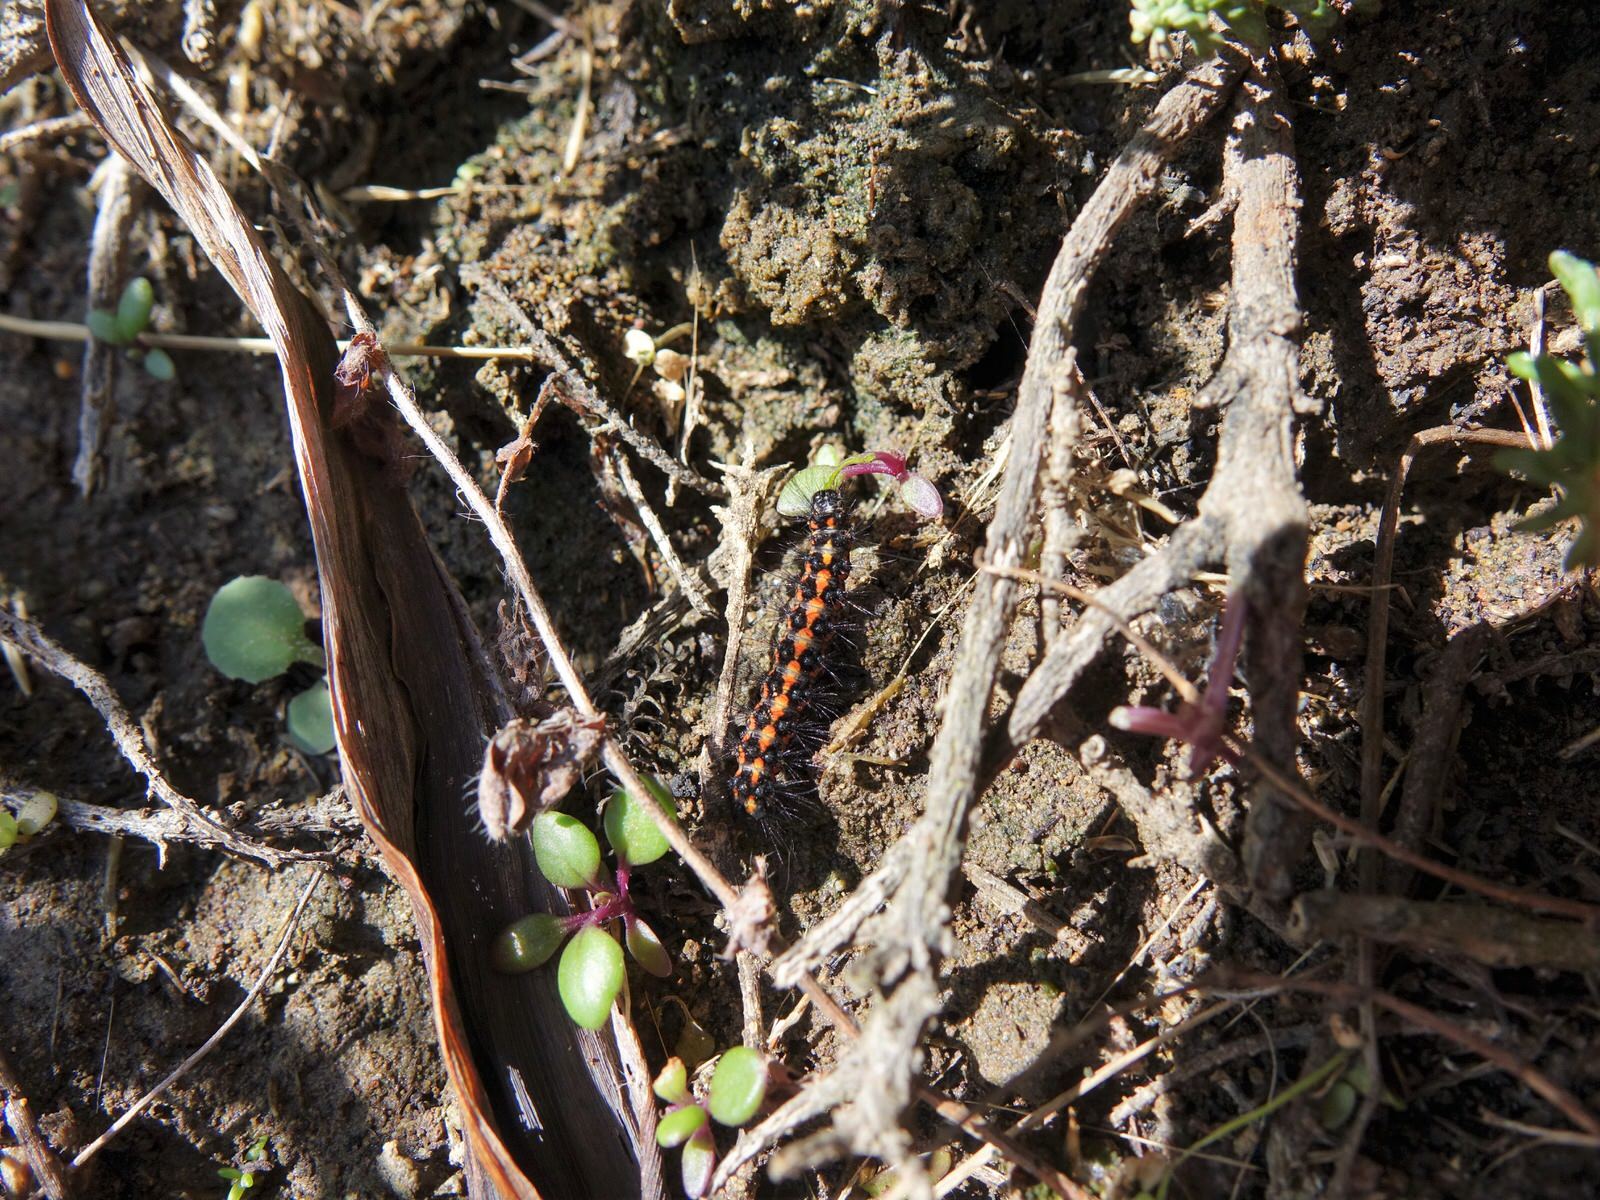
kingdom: Animalia
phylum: Arthropoda
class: Insecta
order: Lepidoptera
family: Erebidae
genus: Nyctemera
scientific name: Nyctemera annulatum
